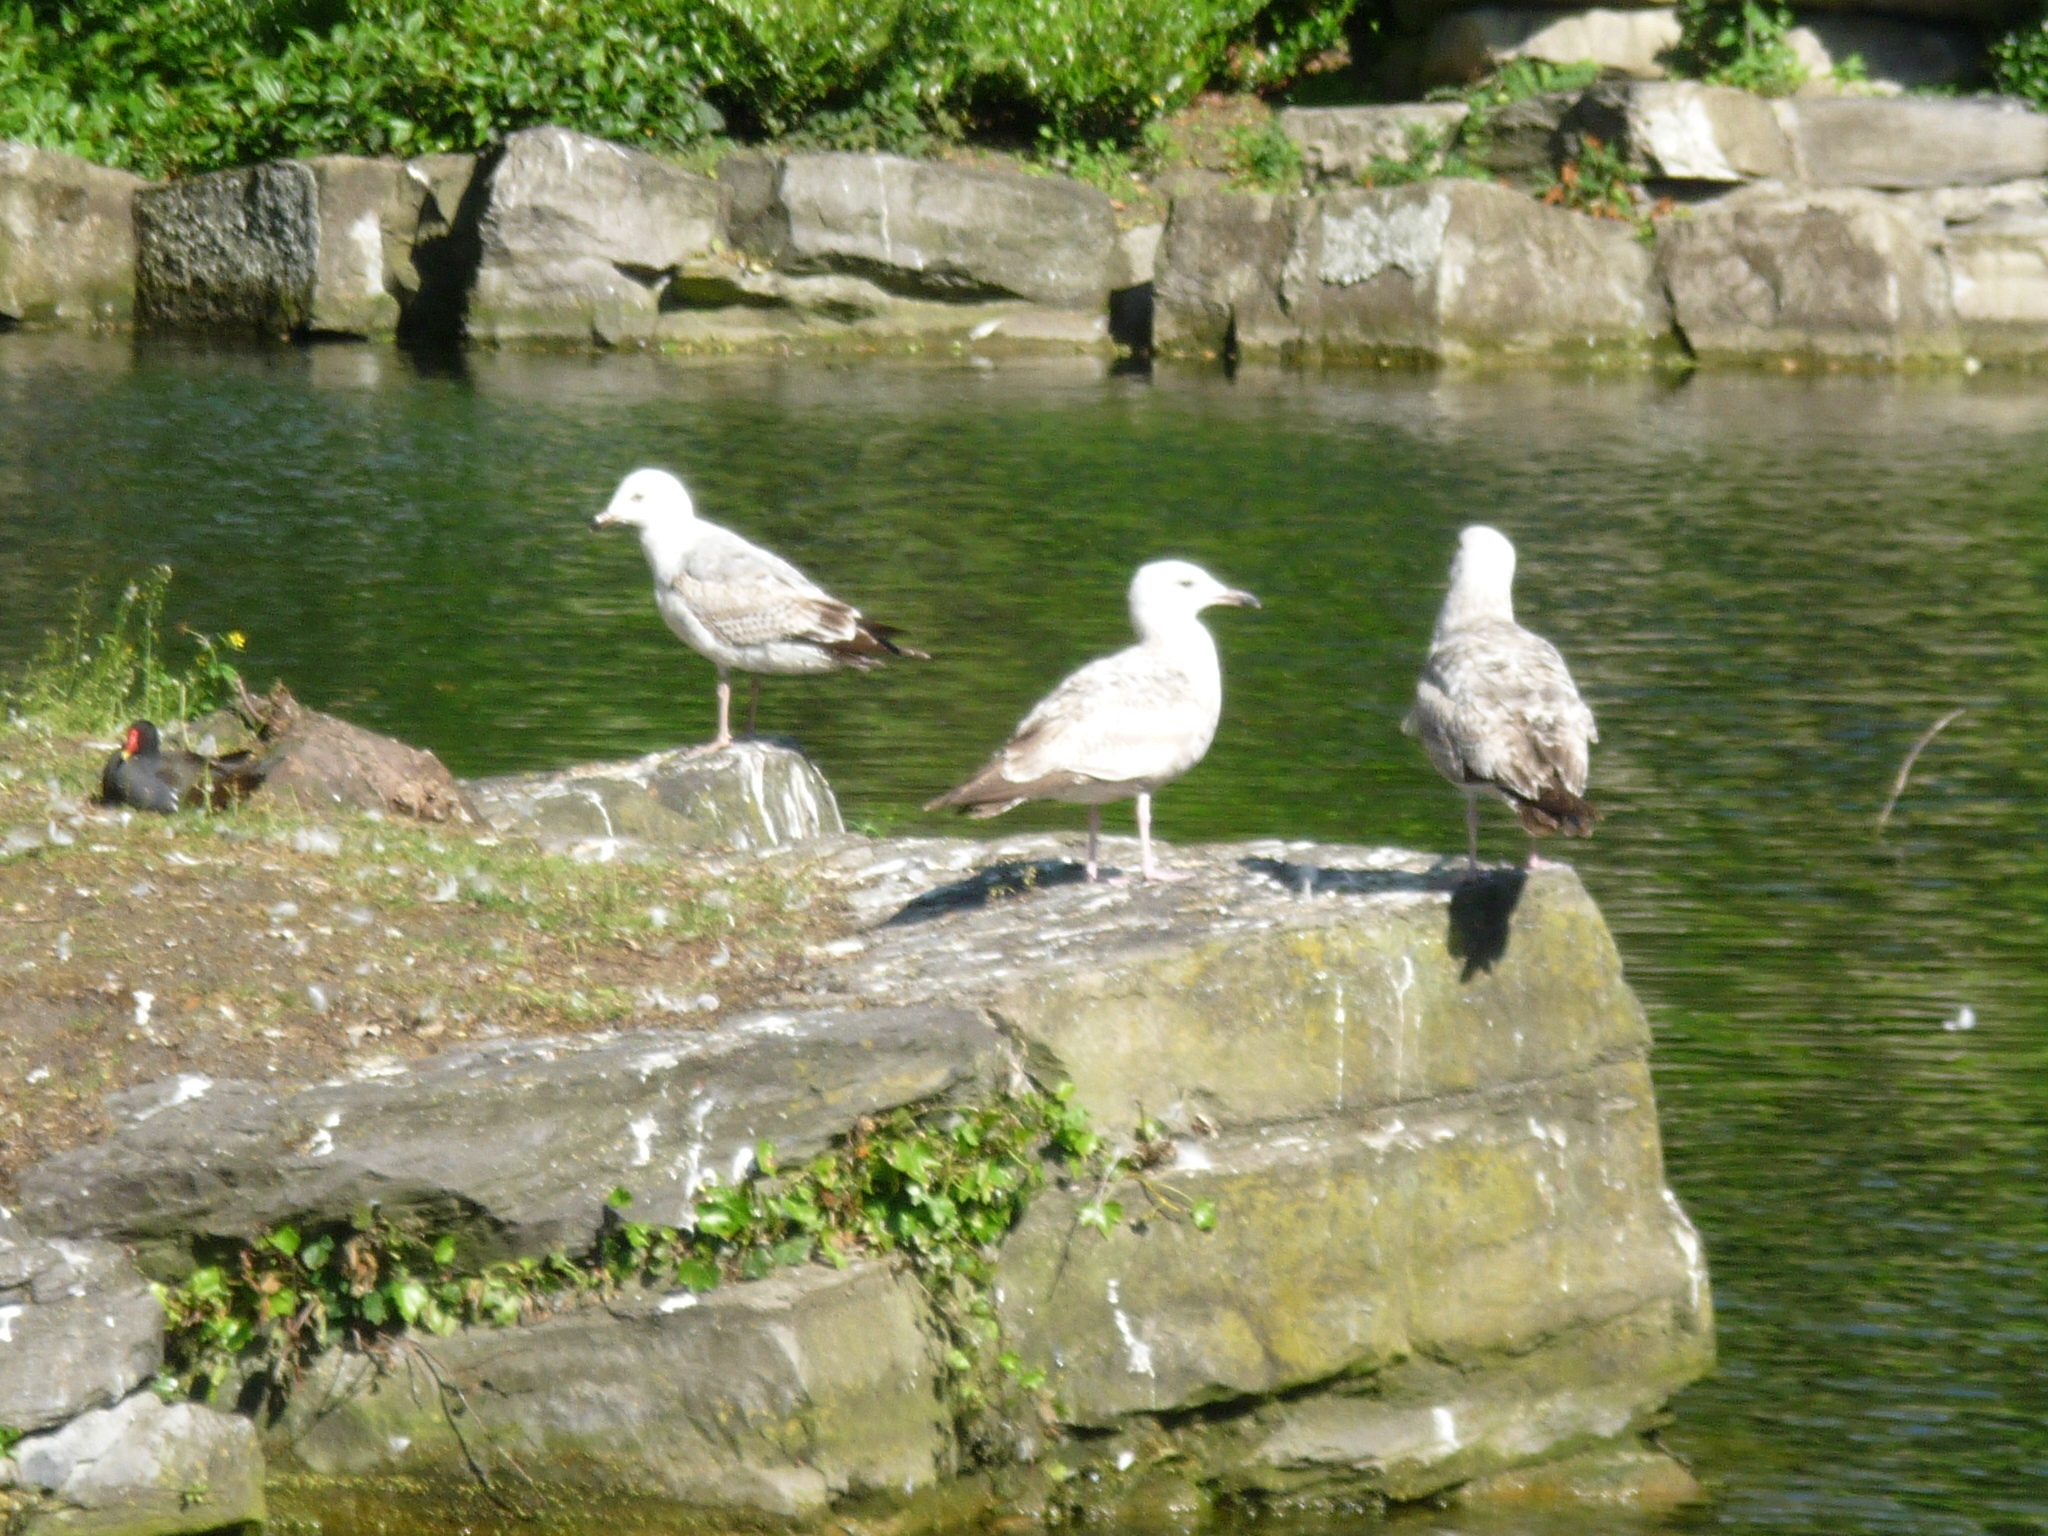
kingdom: Animalia
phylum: Chordata
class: Aves
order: Charadriiformes
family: Laridae
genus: Larus
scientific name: Larus argentatus
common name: Herring gull
